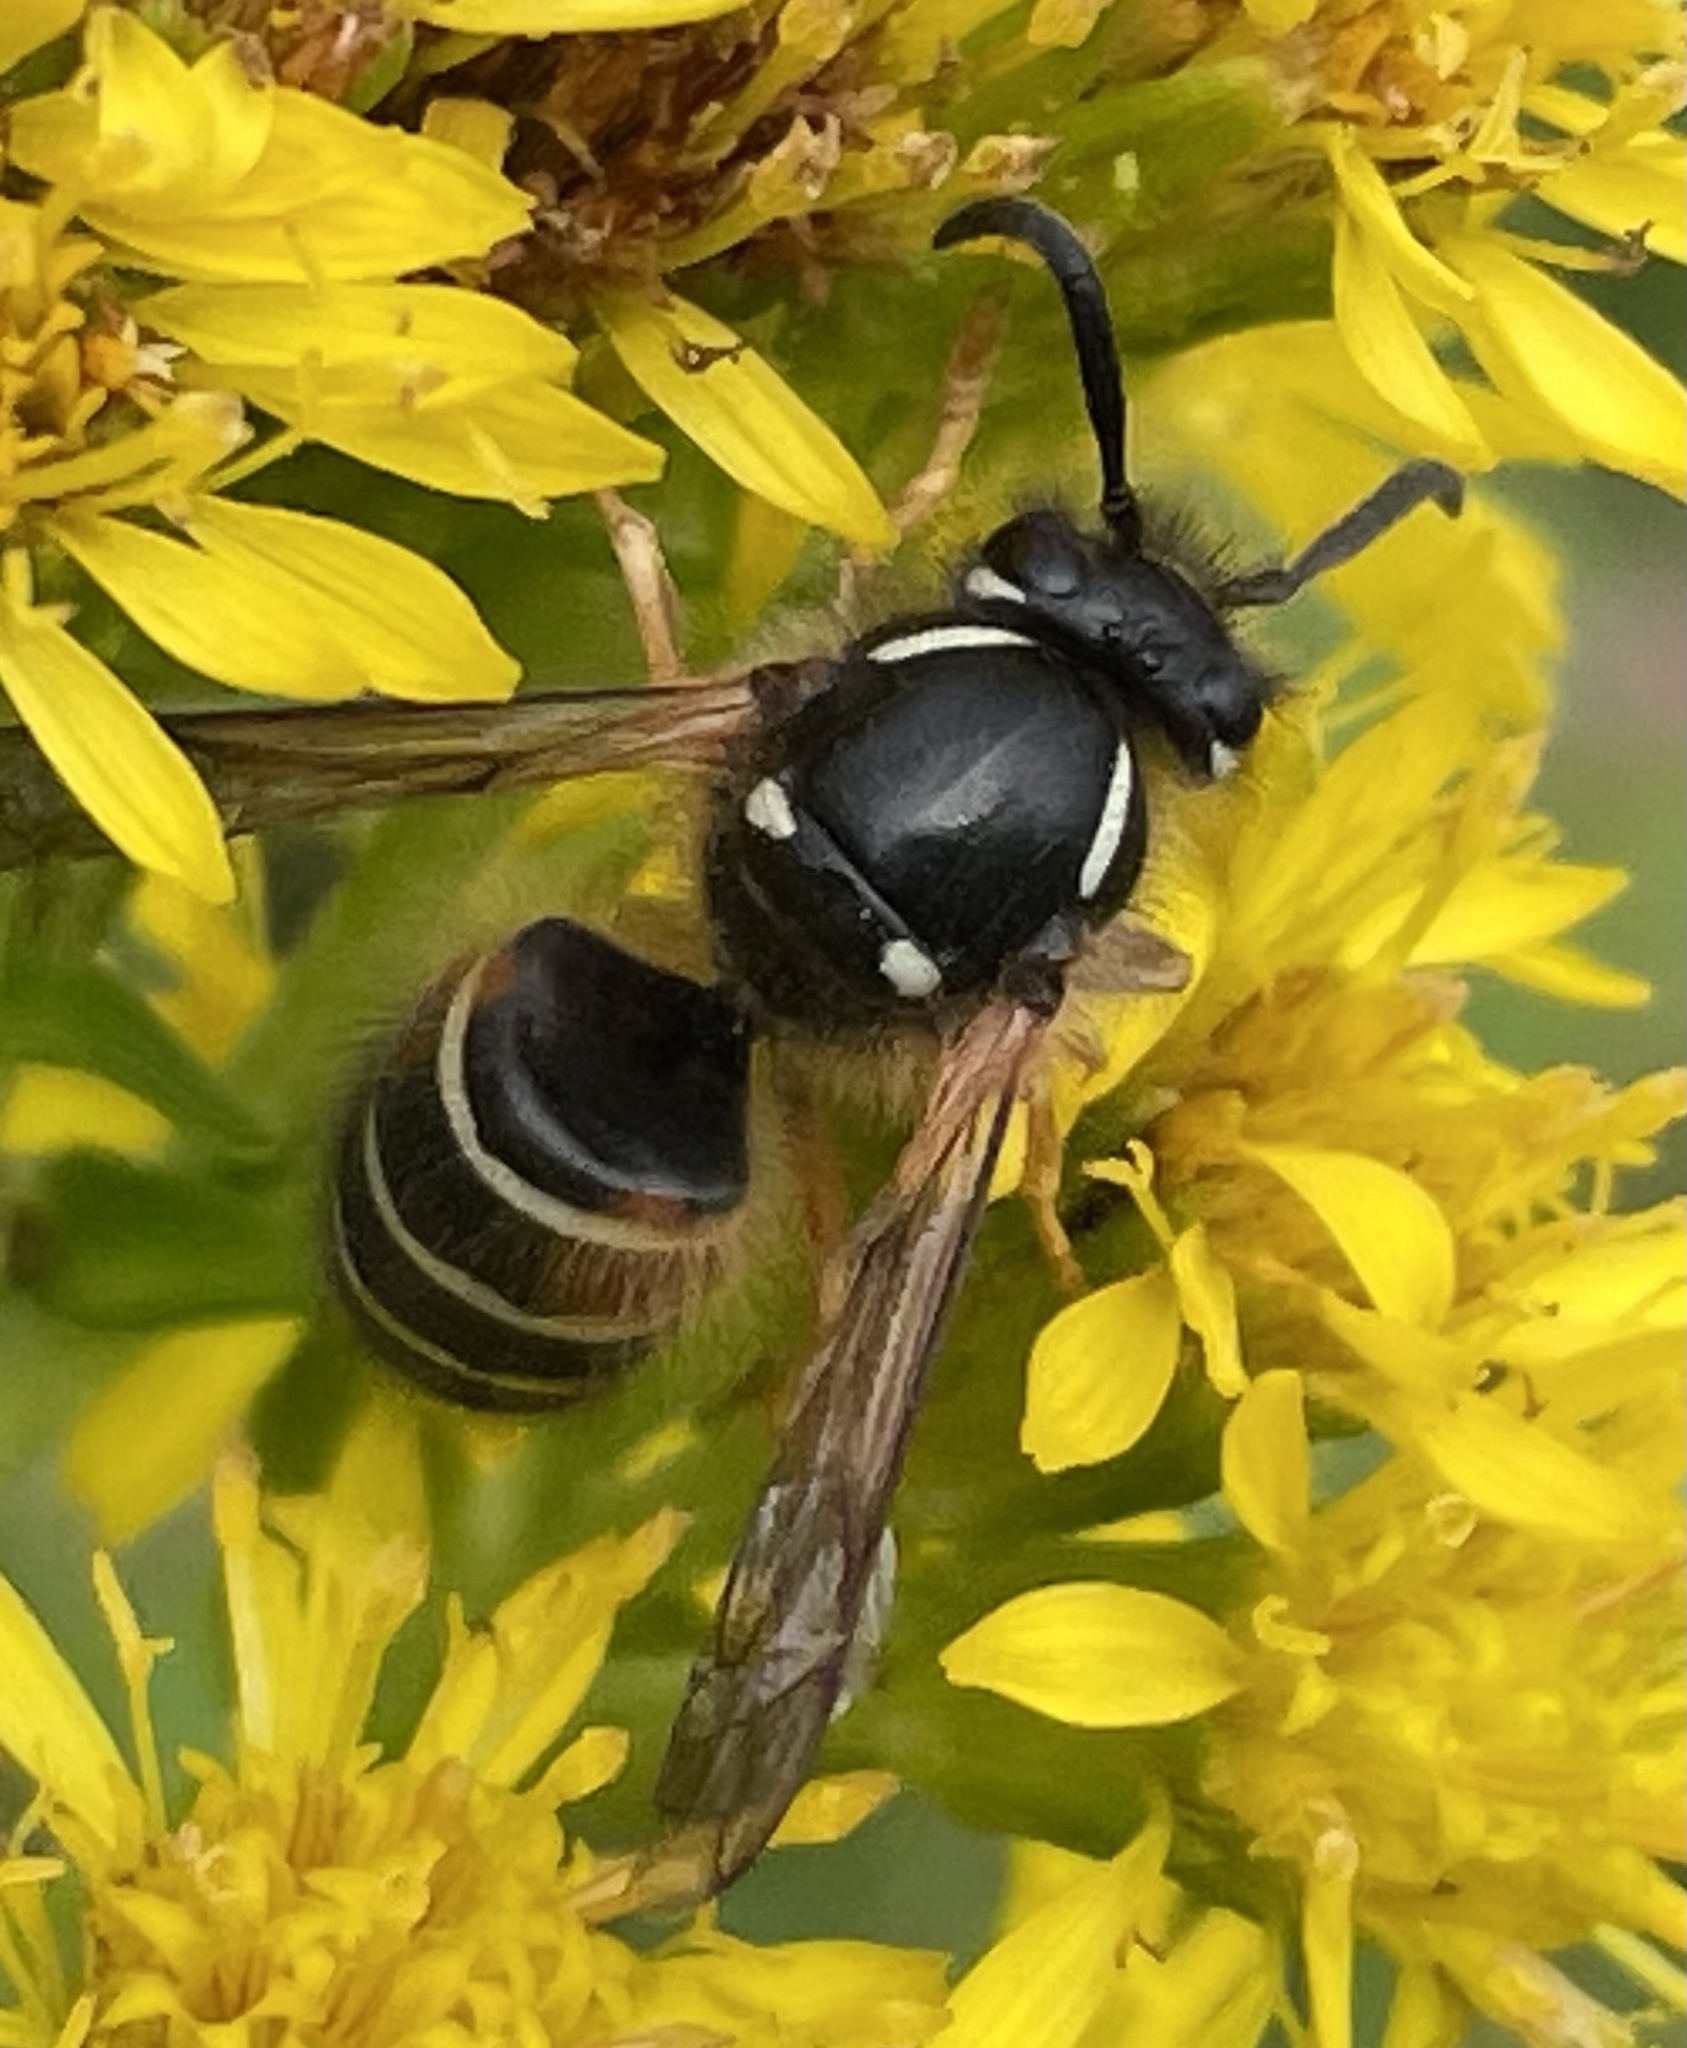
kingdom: Animalia
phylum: Arthropoda
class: Insecta
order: Hymenoptera
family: Vespidae
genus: Dolichovespula
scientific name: Dolichovespula norwegica
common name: Norwegian wasp
